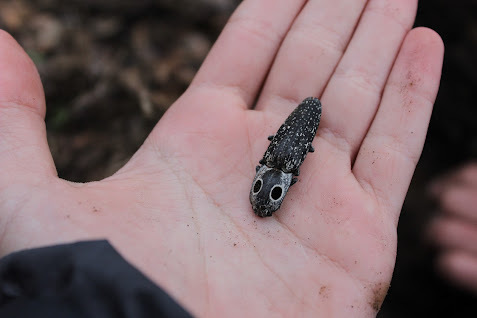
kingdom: Animalia
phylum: Arthropoda
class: Insecta
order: Coleoptera
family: Elateridae
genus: Alaus
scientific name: Alaus oculatus
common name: Eastern eyed click beetle
